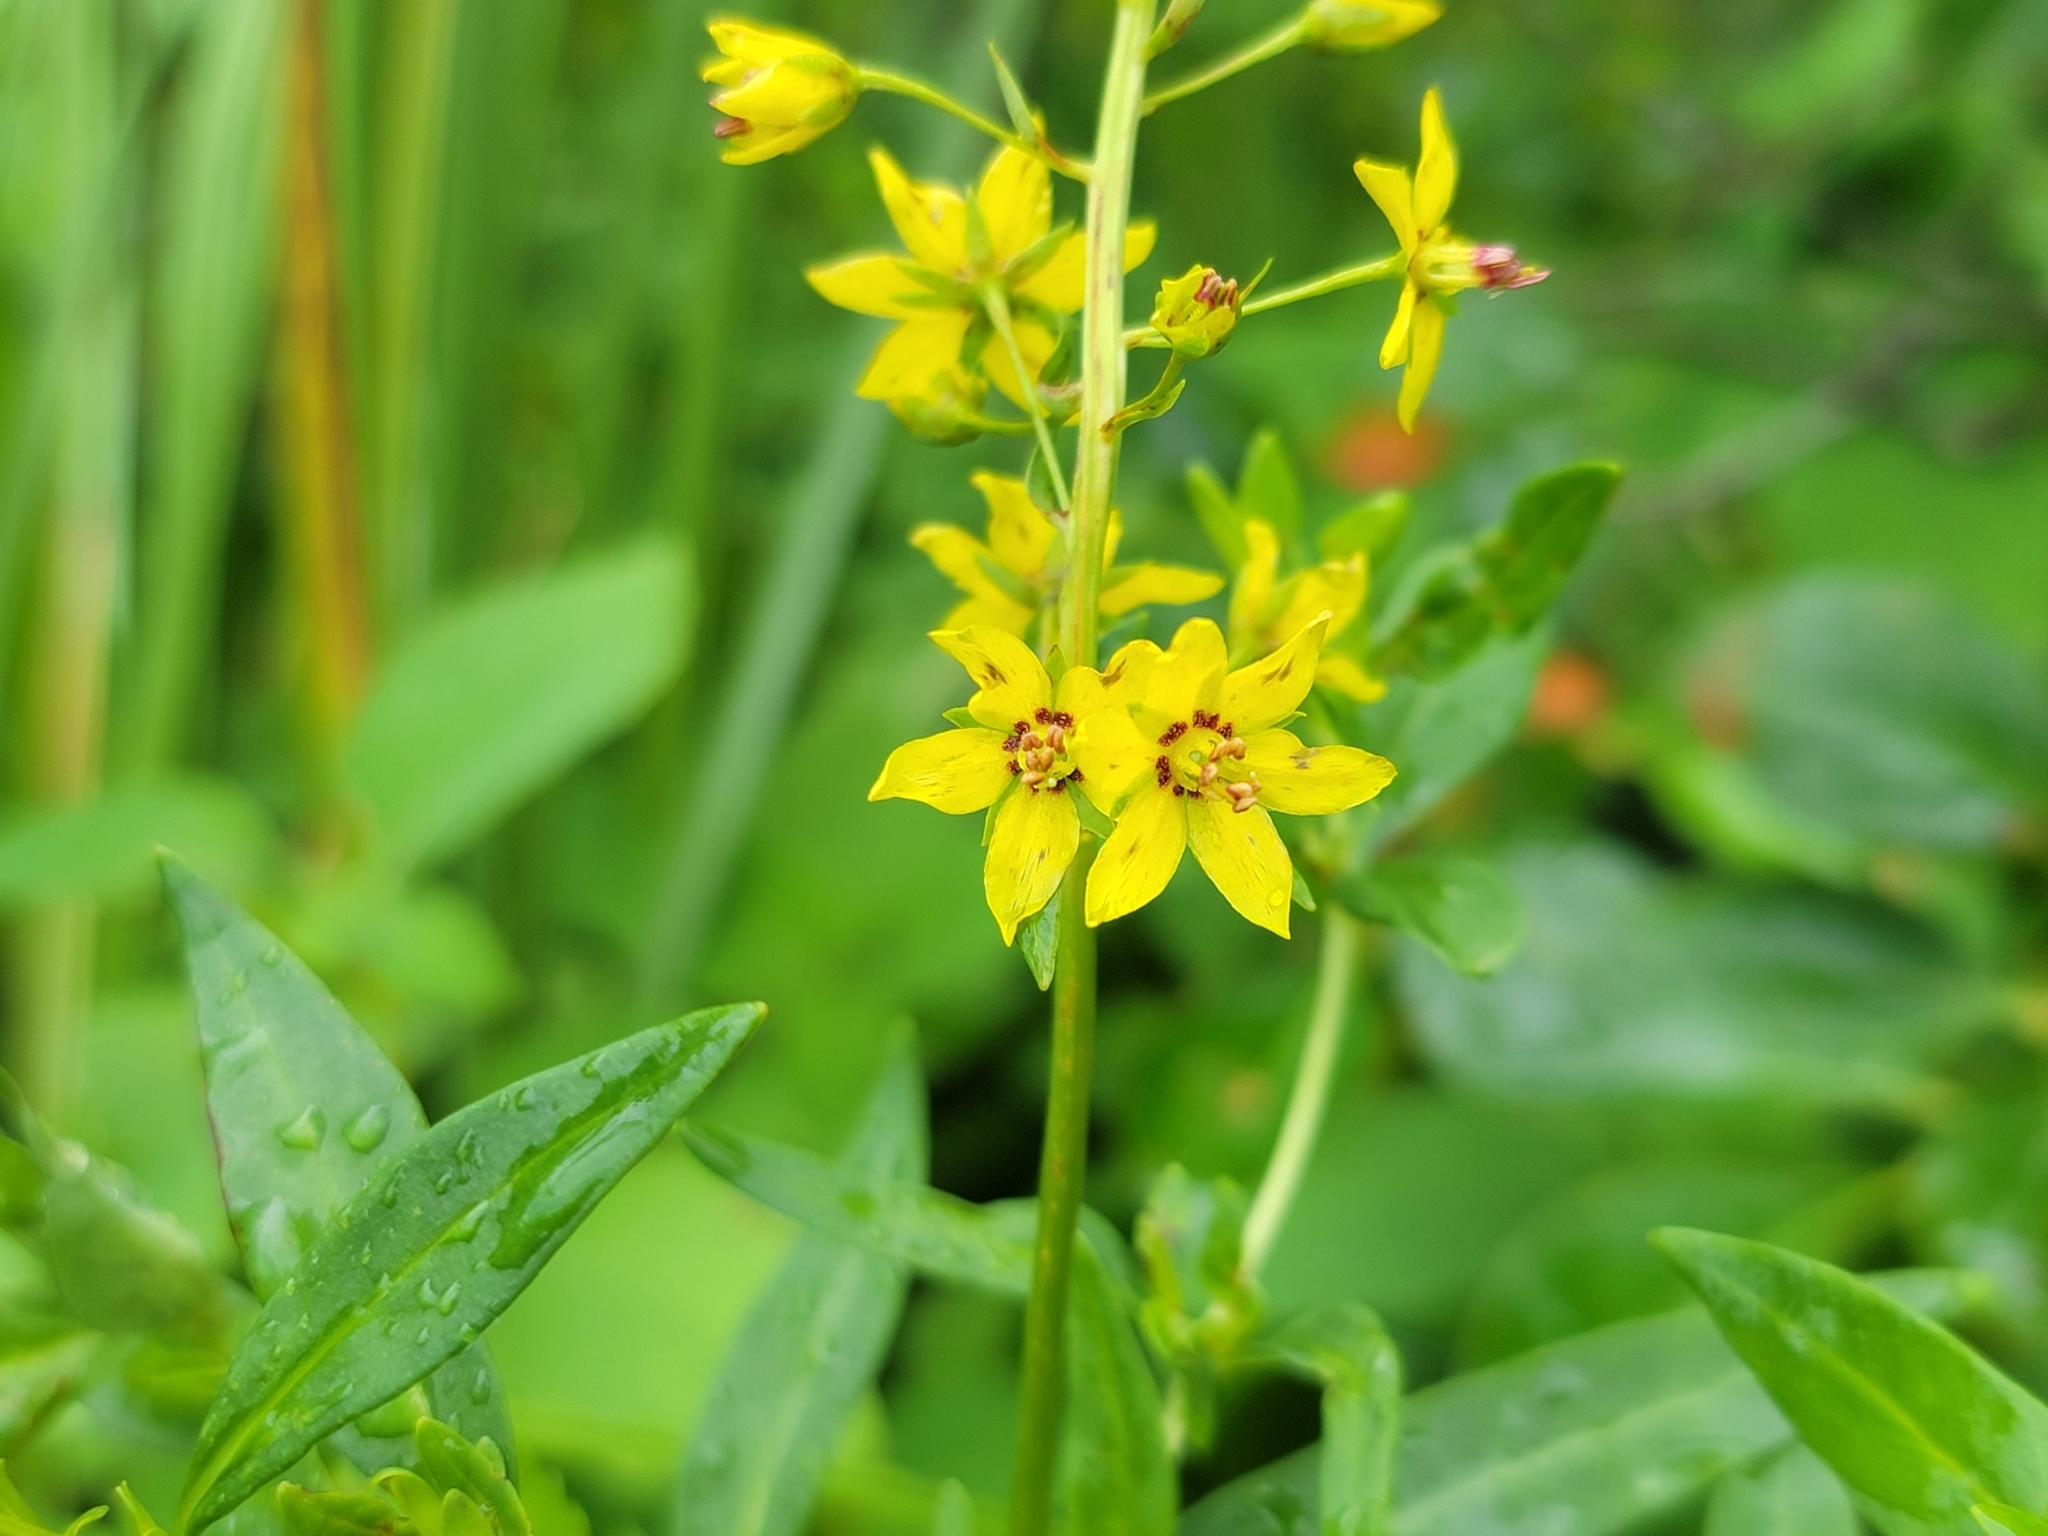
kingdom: Plantae
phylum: Tracheophyta
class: Magnoliopsida
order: Ericales
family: Primulaceae
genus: Lysimachia
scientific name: Lysimachia terrestris
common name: Lake loosestrife
